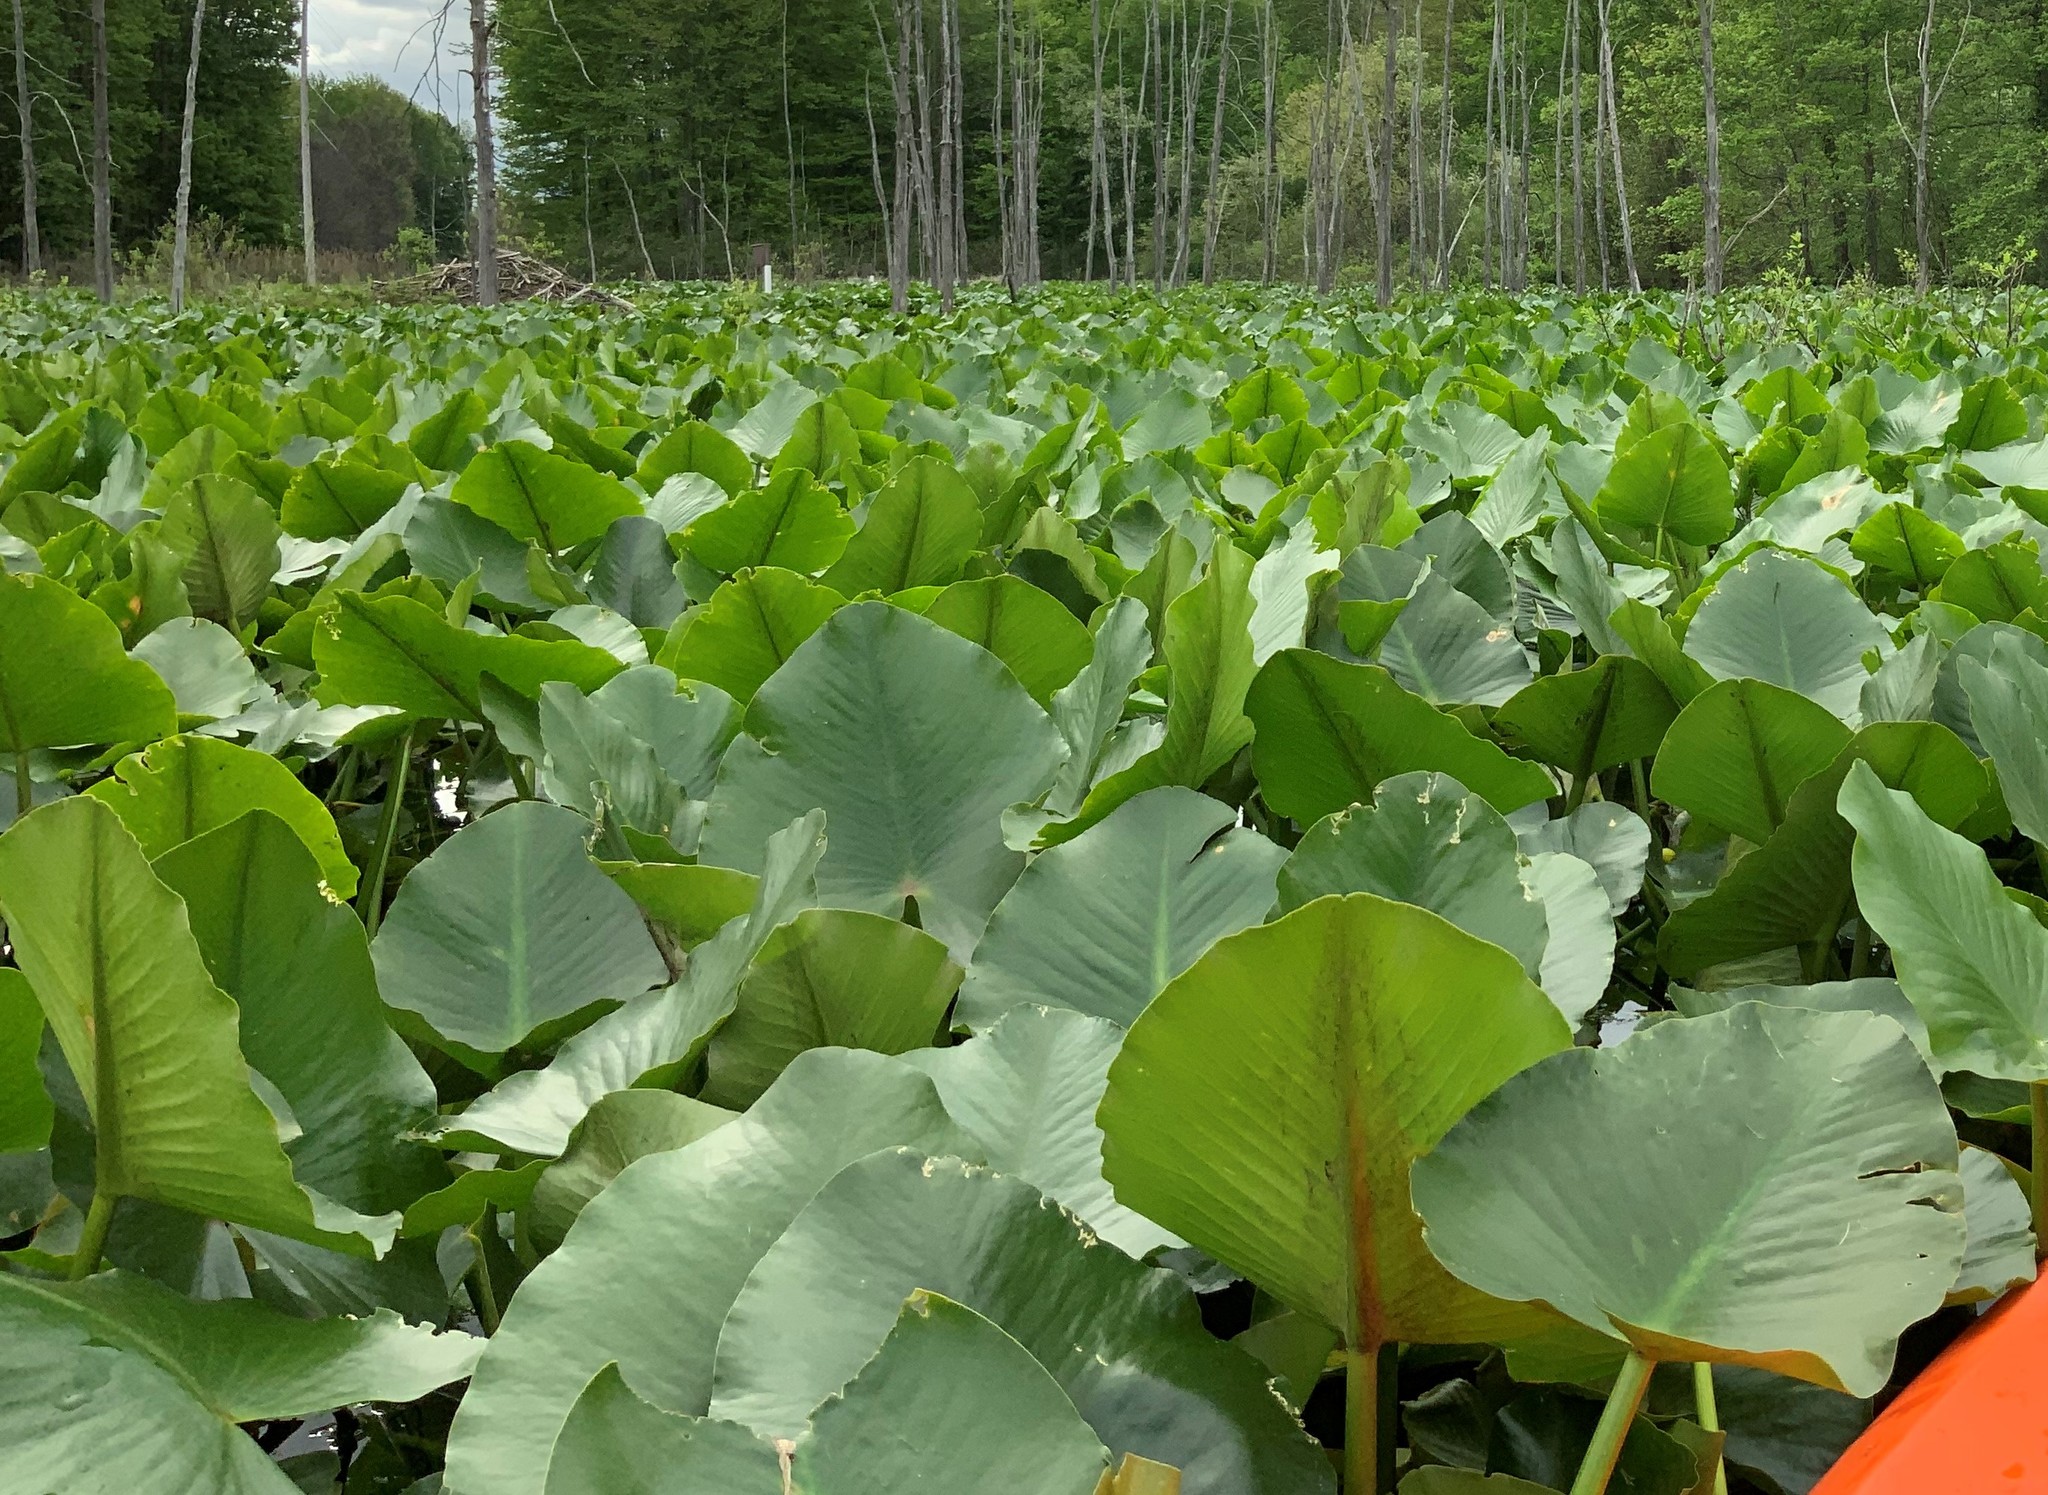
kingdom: Plantae
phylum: Tracheophyta
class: Magnoliopsida
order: Nymphaeales
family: Nymphaeaceae
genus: Nuphar
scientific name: Nuphar advena
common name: Spatter-dock
